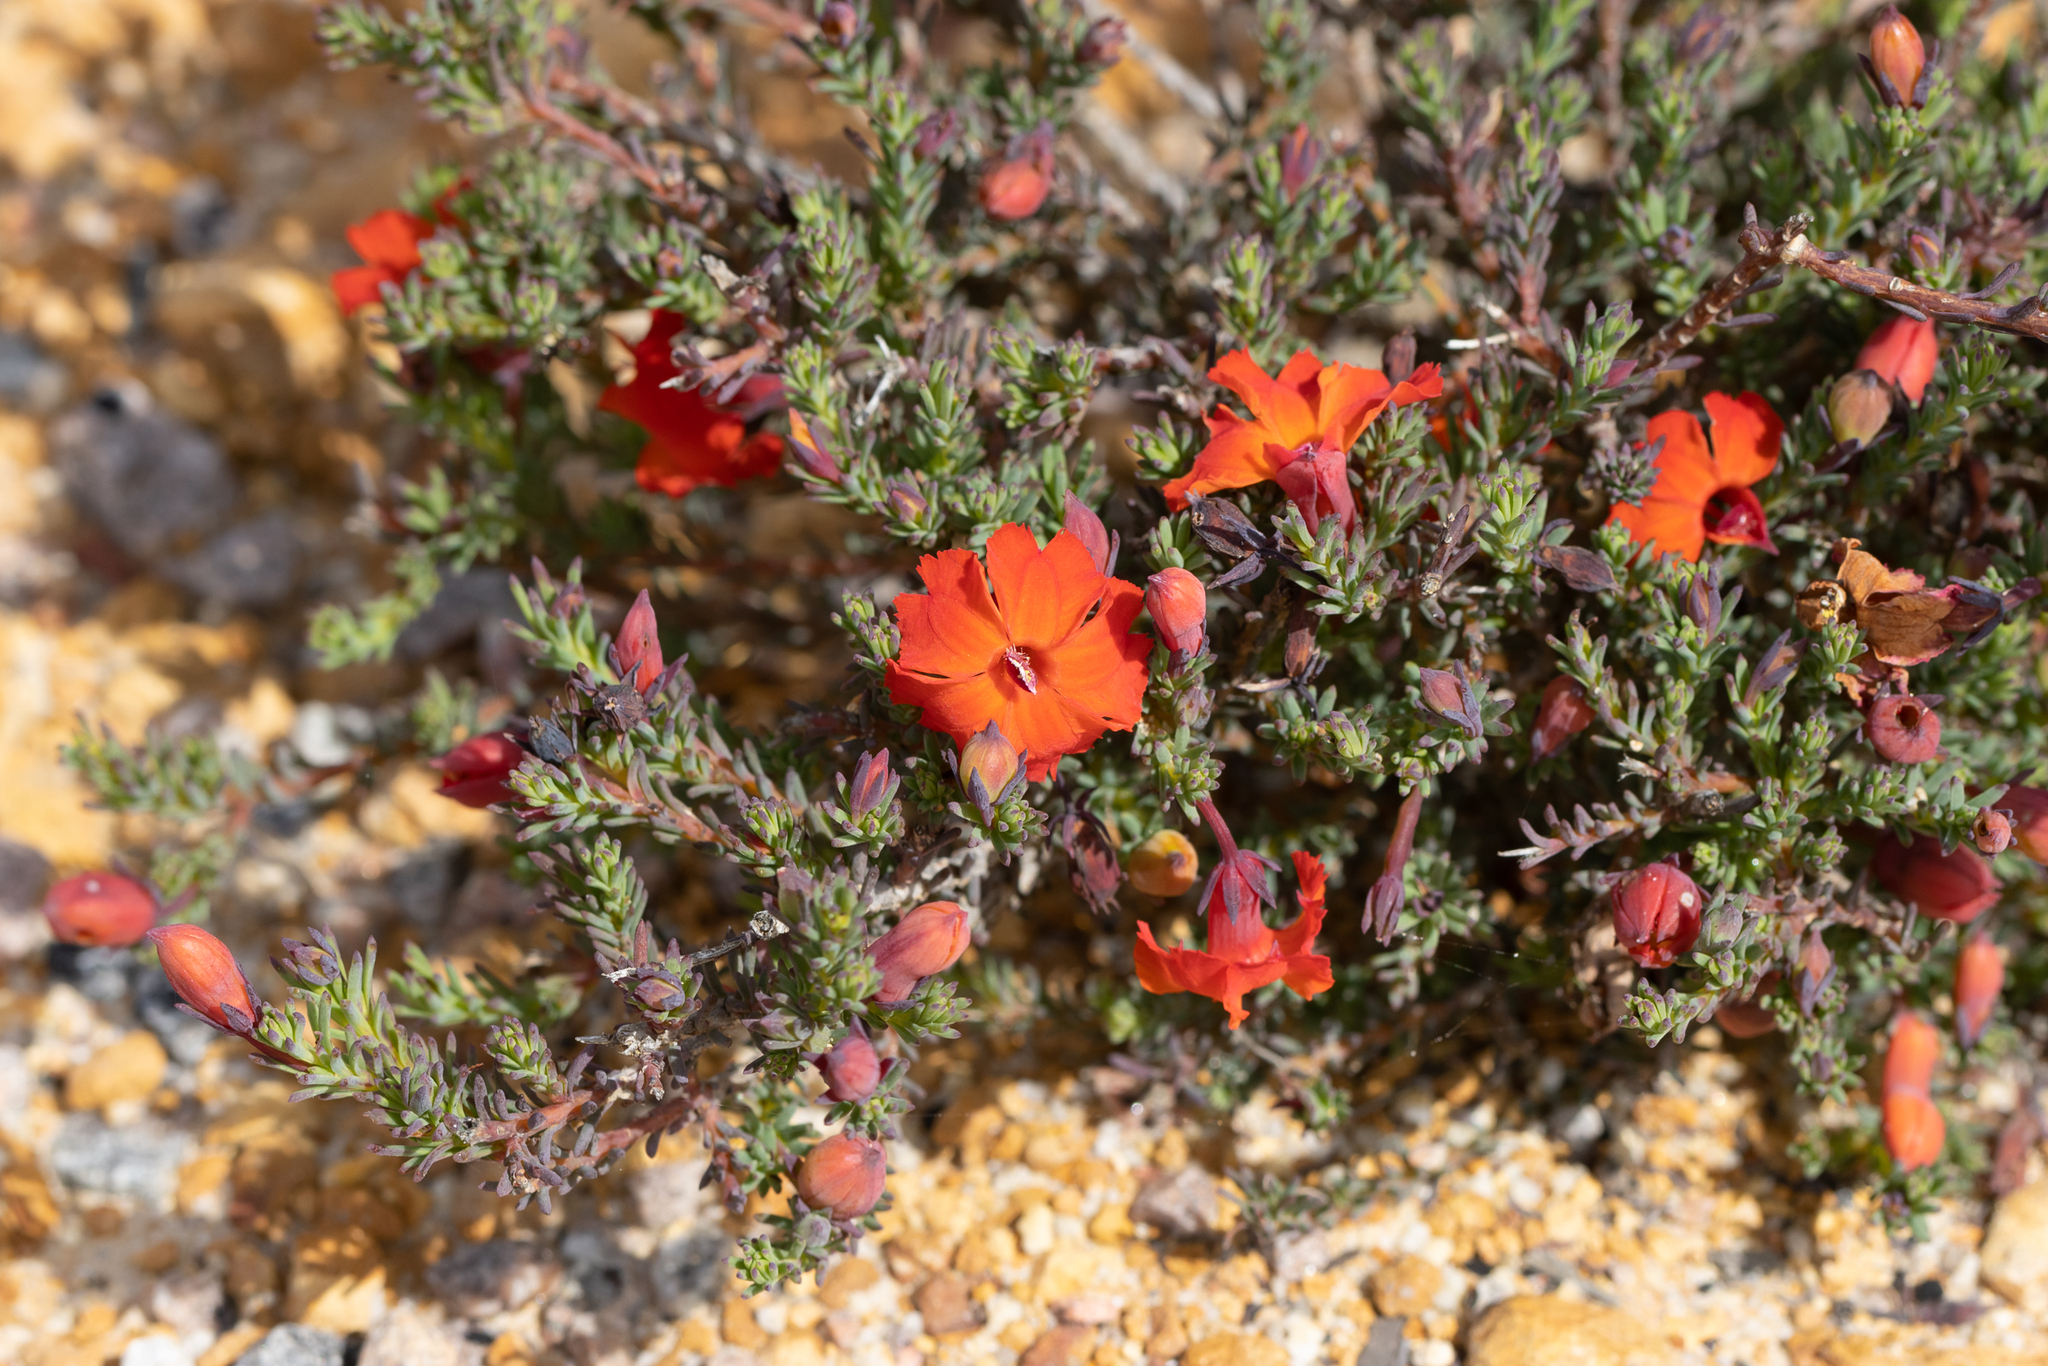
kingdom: Plantae
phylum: Tracheophyta
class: Magnoliopsida
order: Asterales
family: Goodeniaceae
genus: Lechenaultia
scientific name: Lechenaultia formosa
